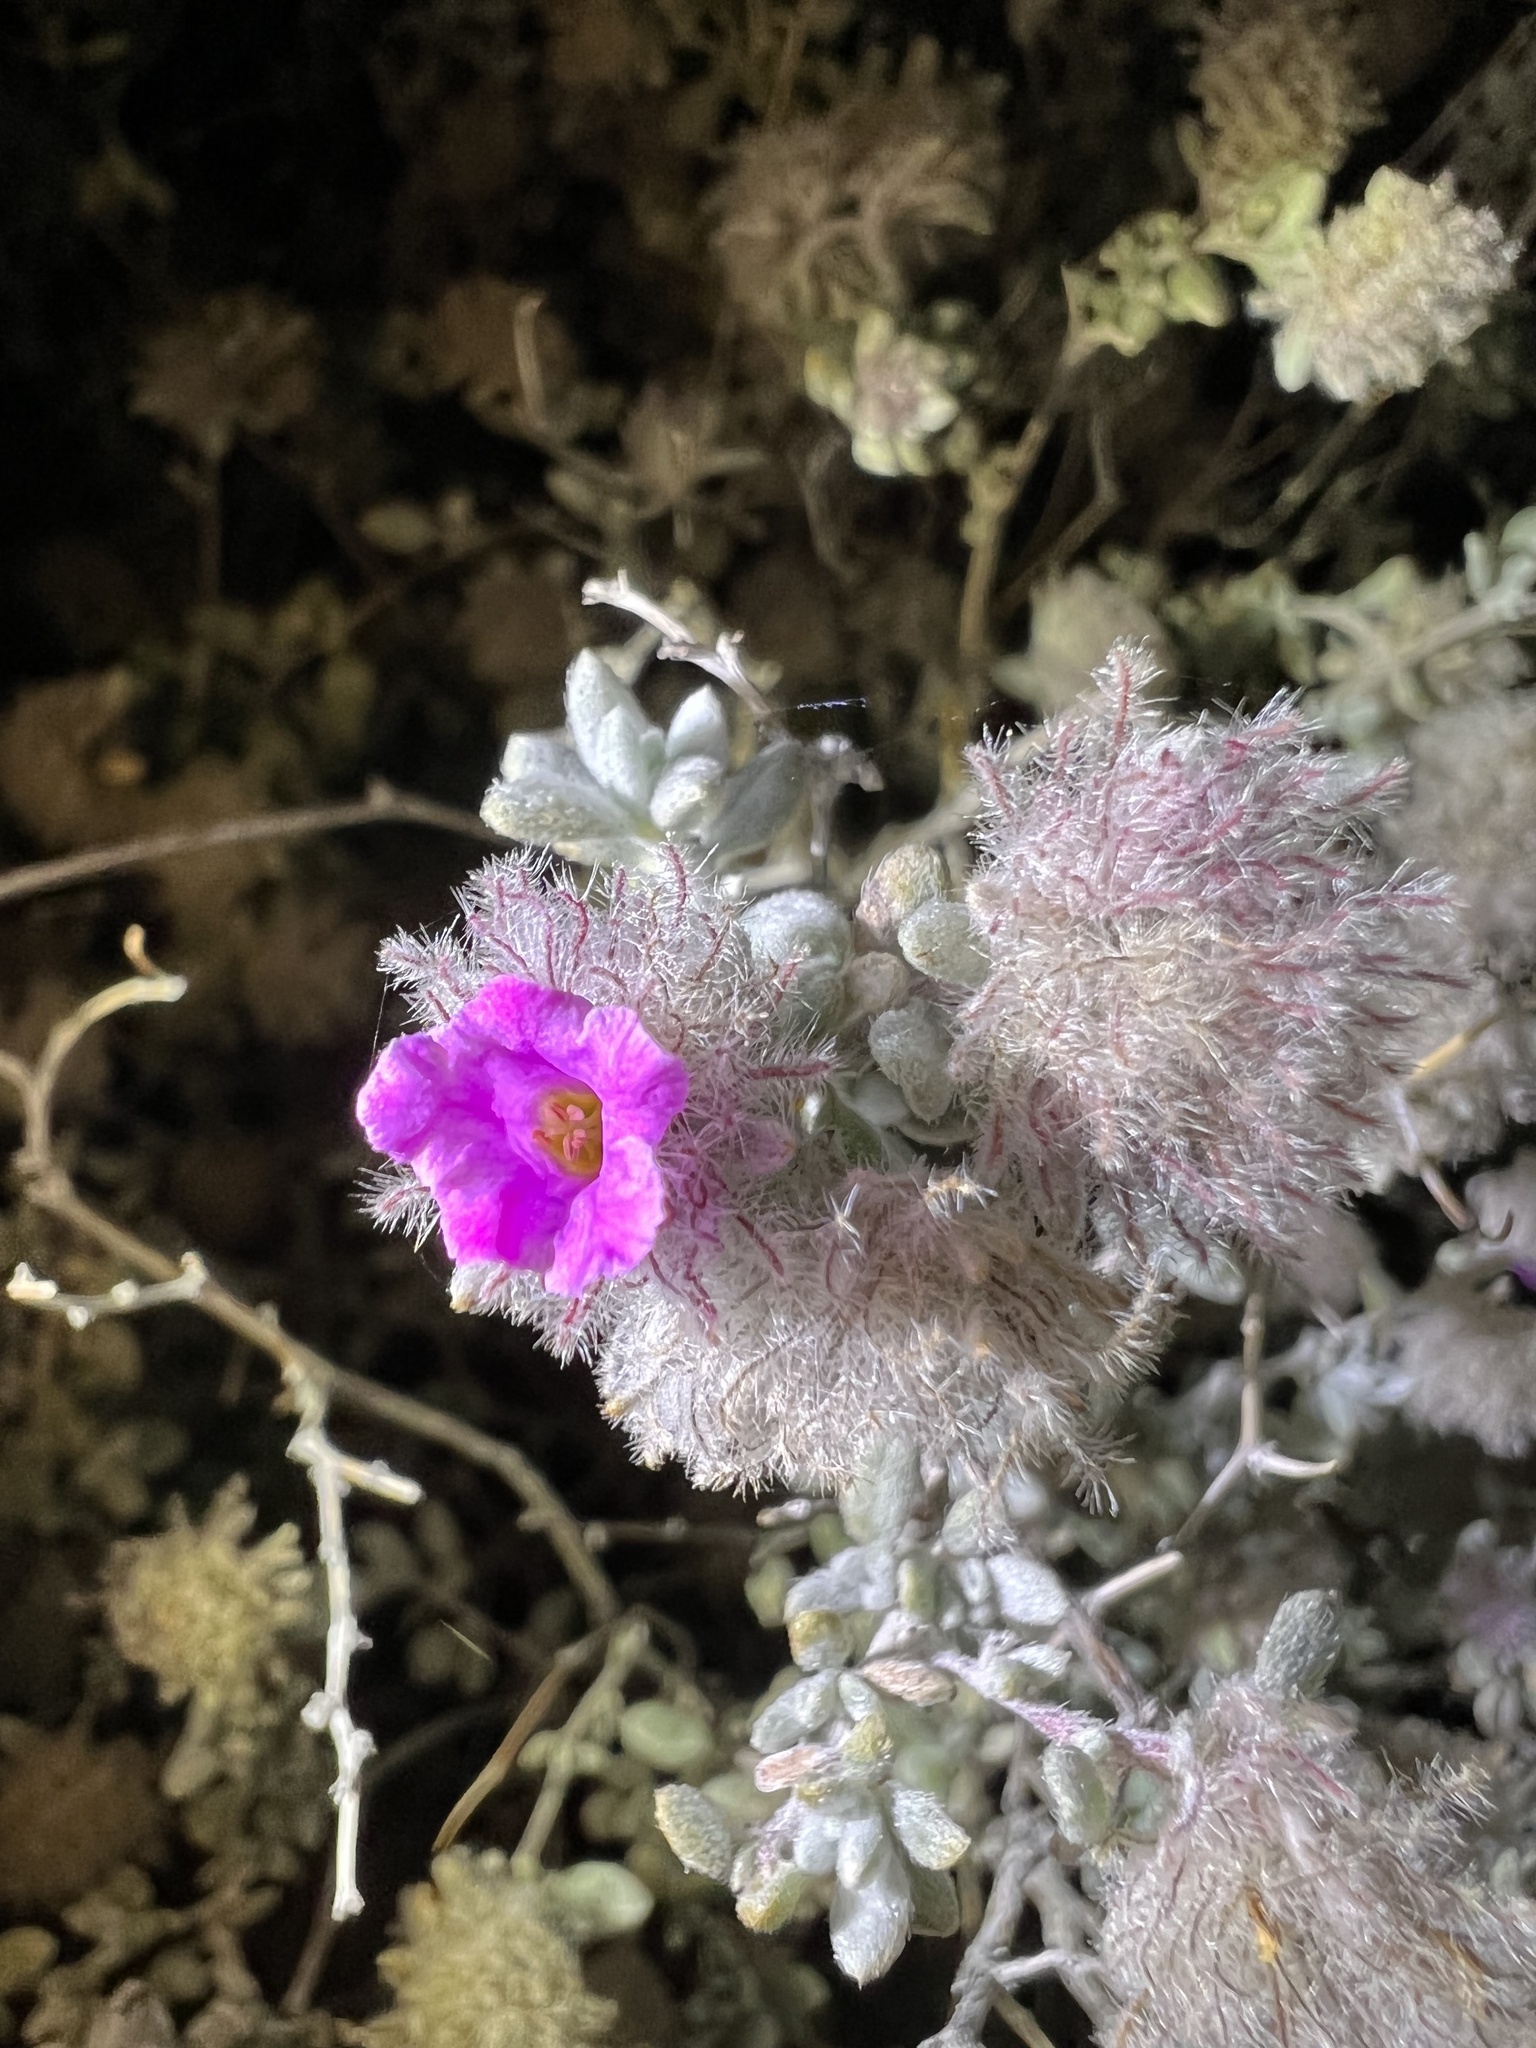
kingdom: Plantae
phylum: Tracheophyta
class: Magnoliopsida
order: Boraginales
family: Ehretiaceae
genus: Tiquilia
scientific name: Tiquilia greggii
